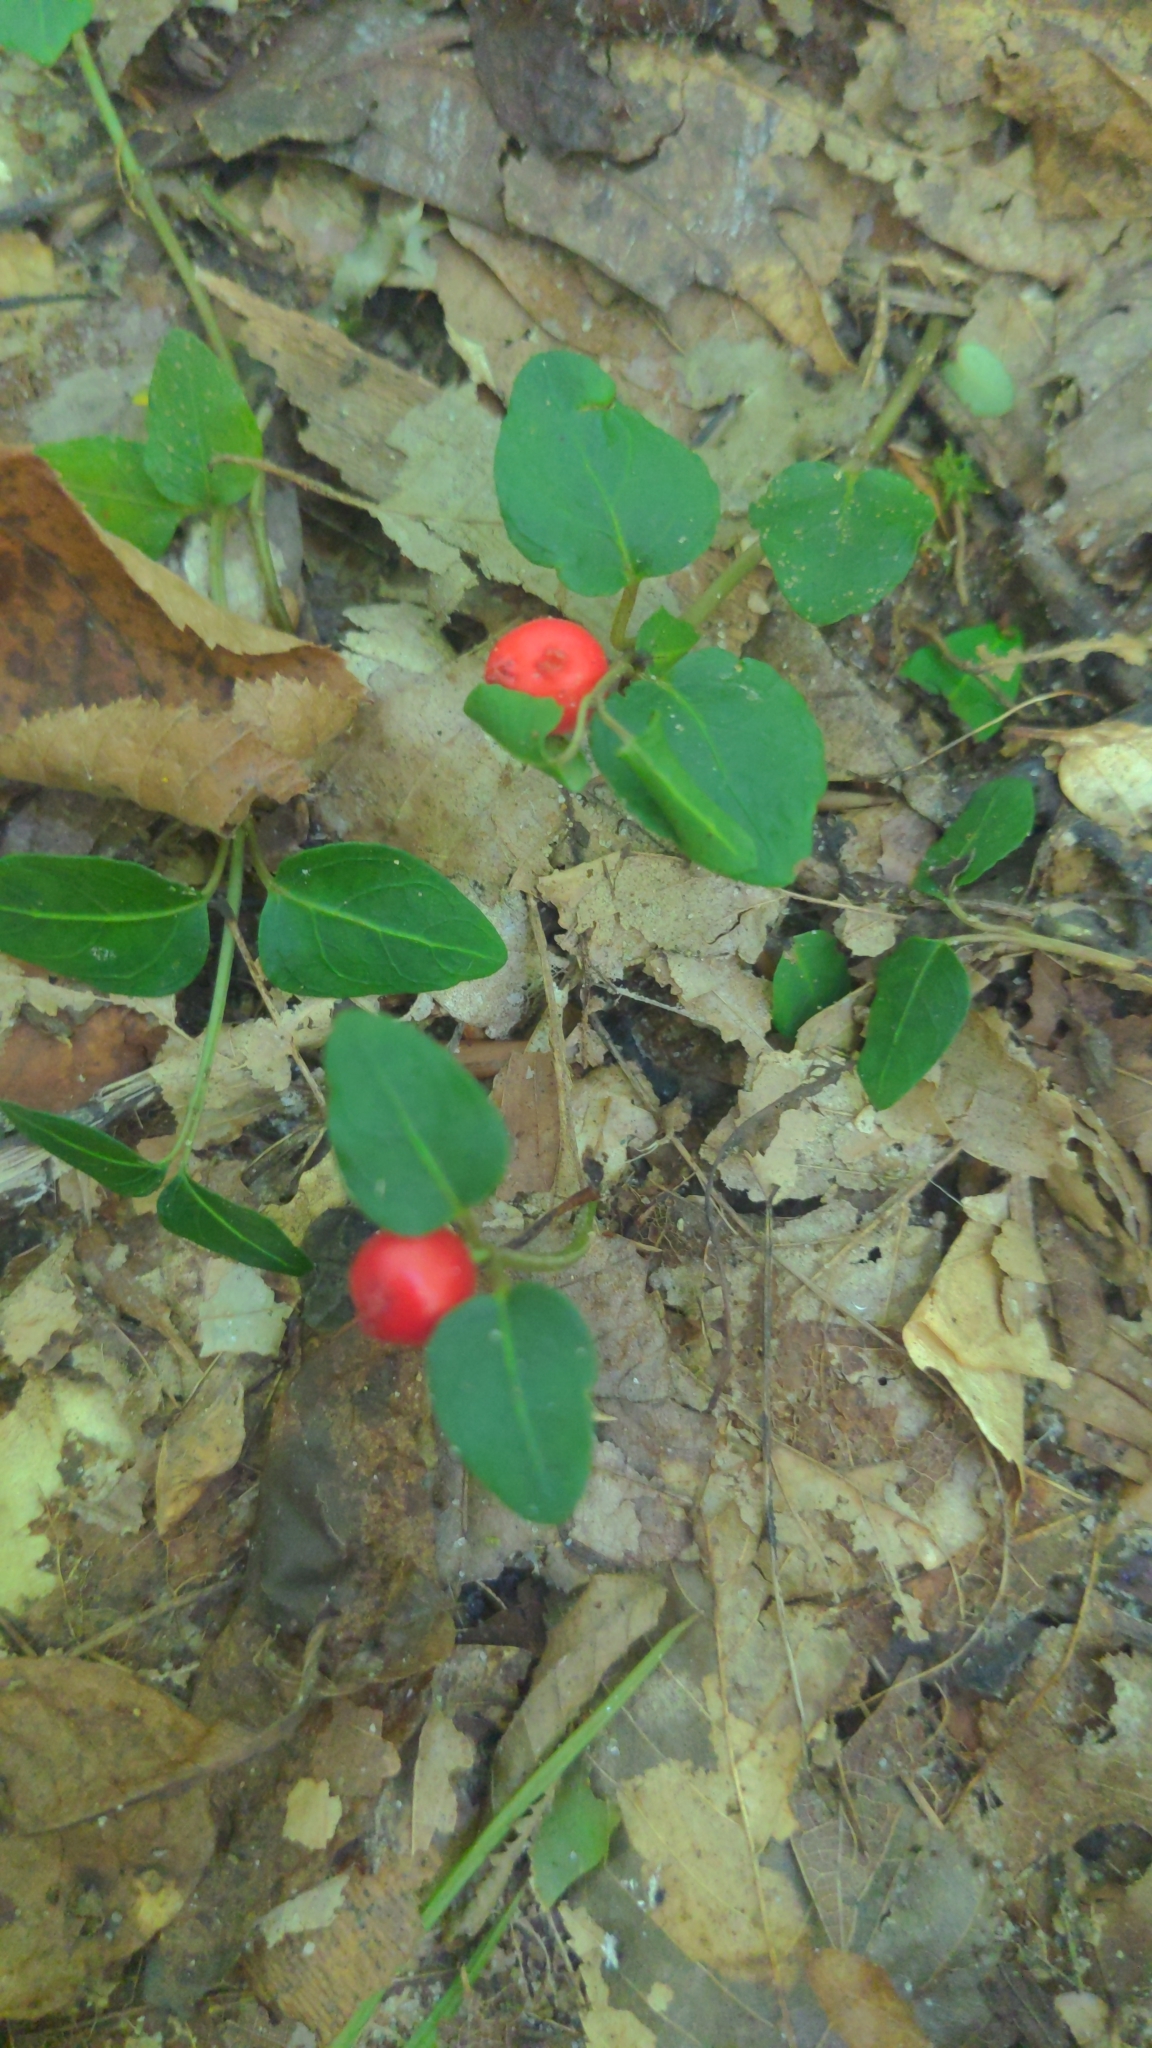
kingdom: Plantae
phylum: Tracheophyta
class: Magnoliopsida
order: Gentianales
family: Rubiaceae
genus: Mitchella
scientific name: Mitchella repens
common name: Partridge-berry
